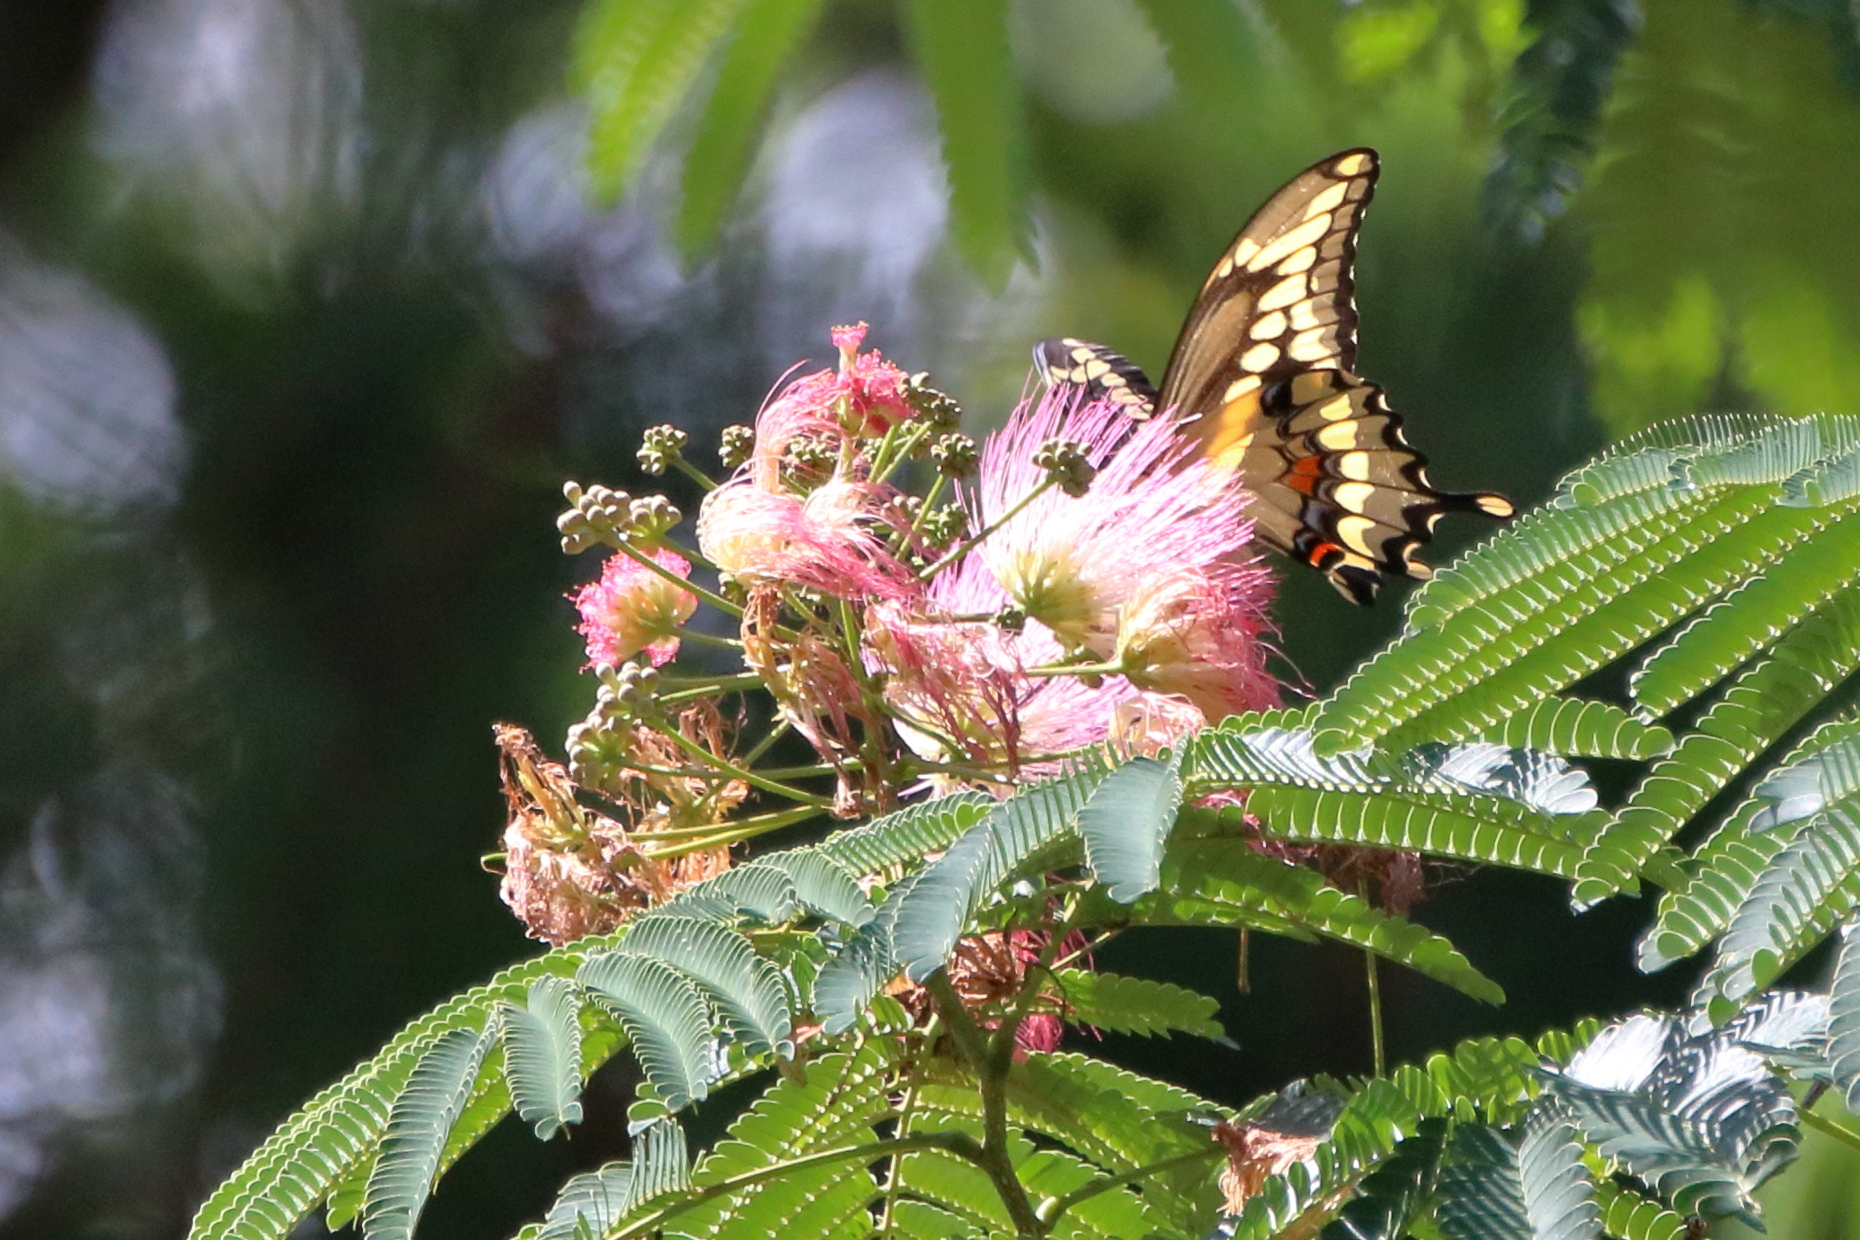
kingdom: Animalia
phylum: Arthropoda
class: Insecta
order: Lepidoptera
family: Papilionidae
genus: Papilio
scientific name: Papilio cresphontes
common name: Giant swallowtail
